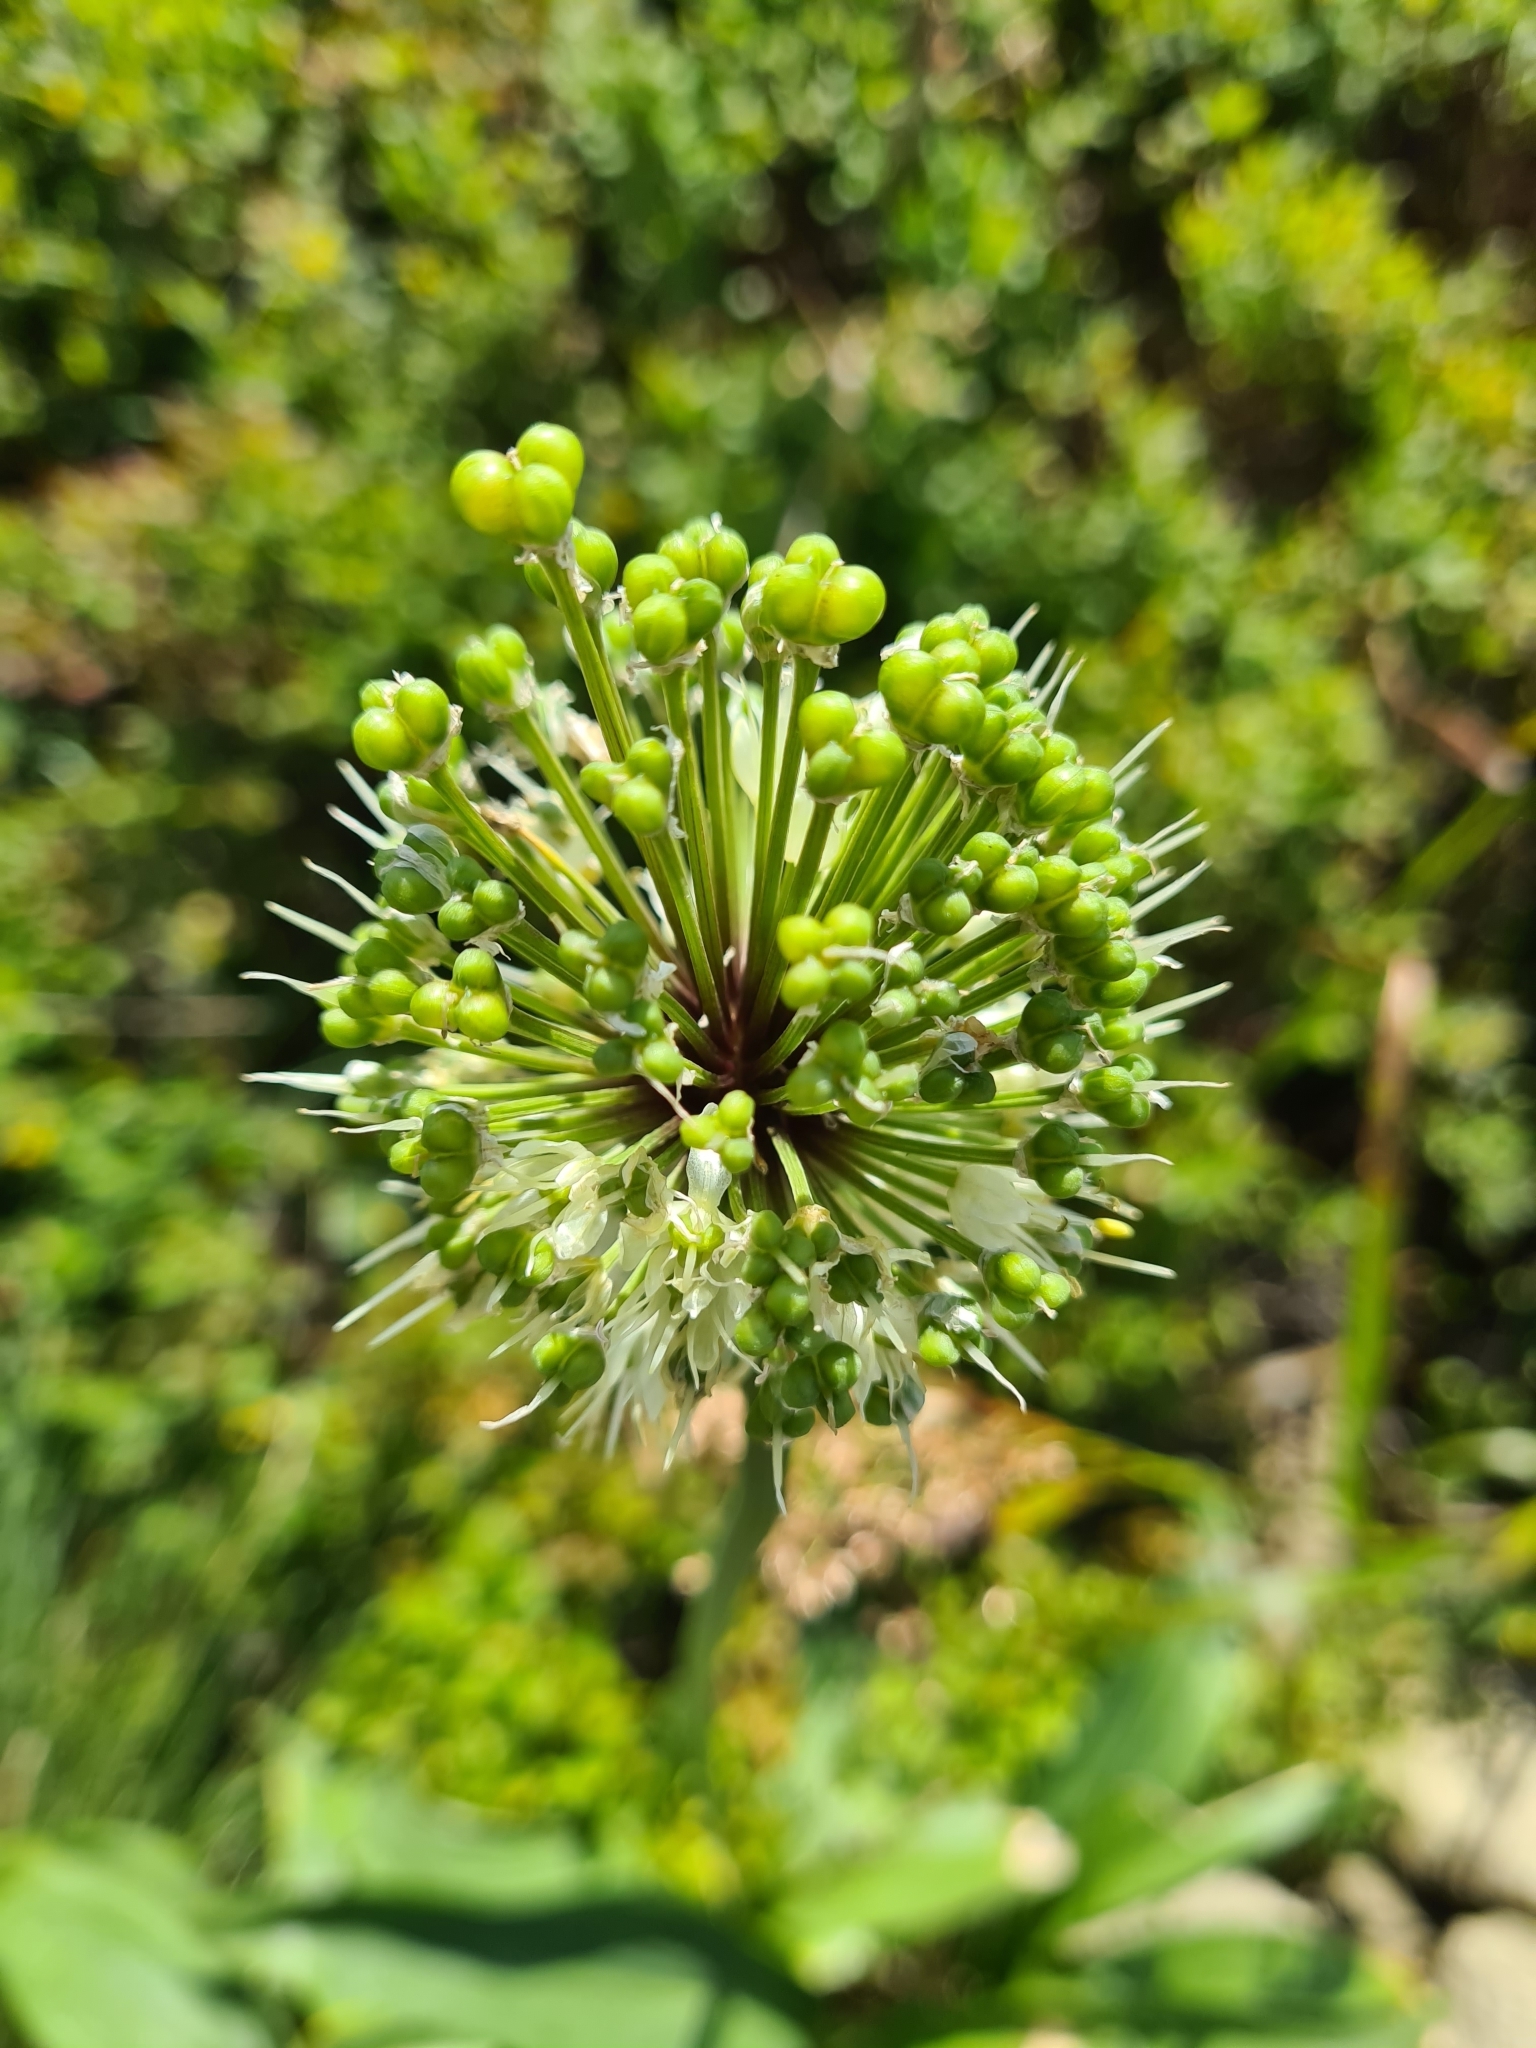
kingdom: Plantae
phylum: Tracheophyta
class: Liliopsida
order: Asparagales
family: Amaryllidaceae
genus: Allium
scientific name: Allium victorialis
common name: Alpine leek
